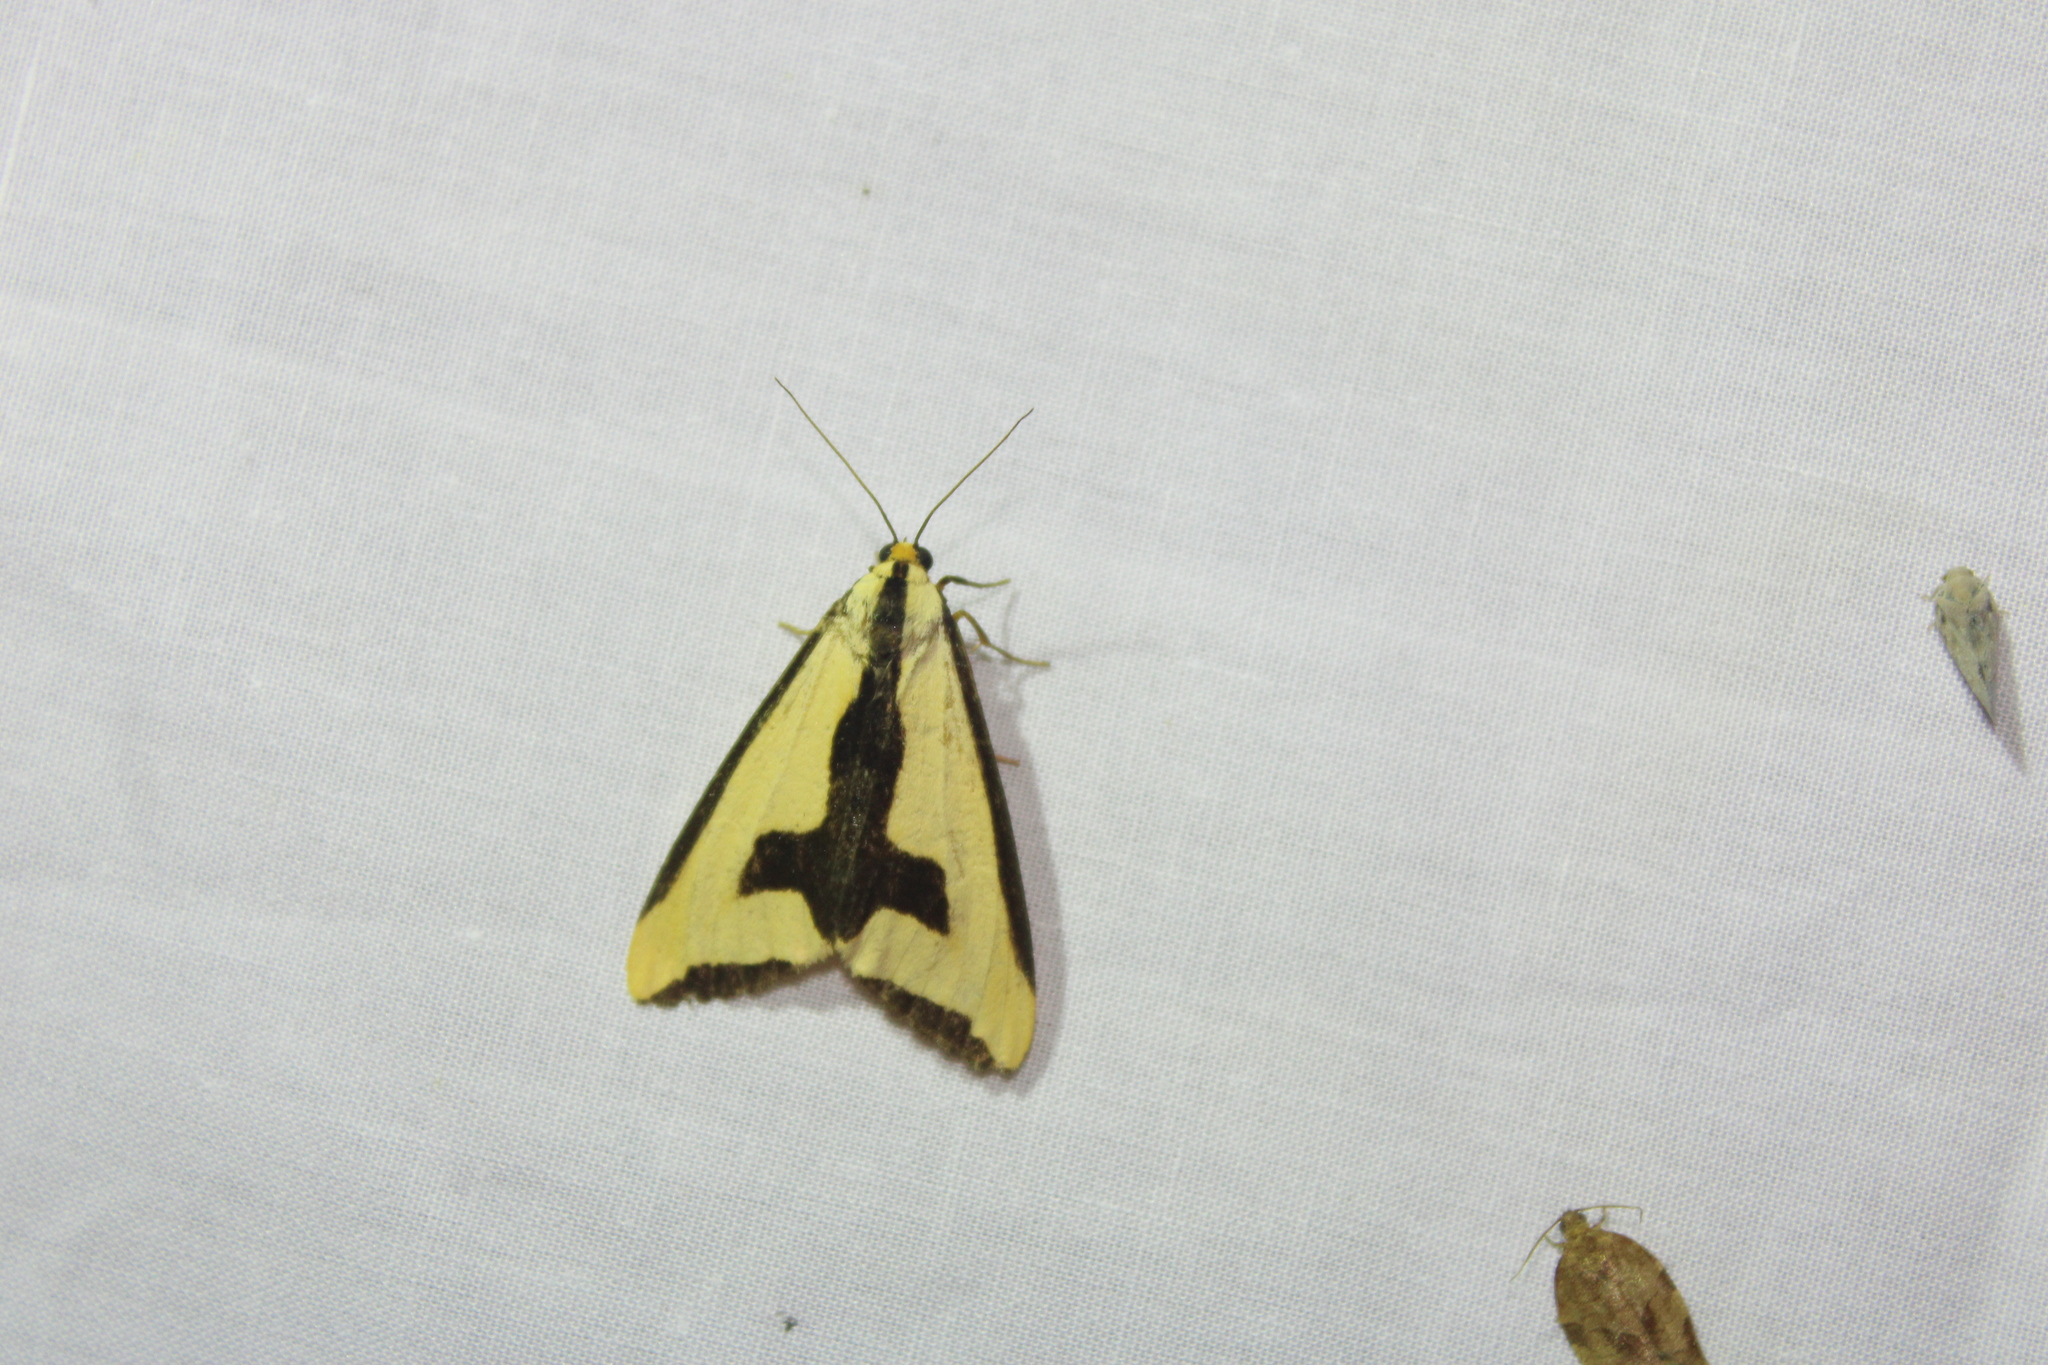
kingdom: Animalia
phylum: Arthropoda
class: Insecta
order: Lepidoptera
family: Erebidae
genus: Haploa
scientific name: Haploa clymene
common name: Clymene moth
